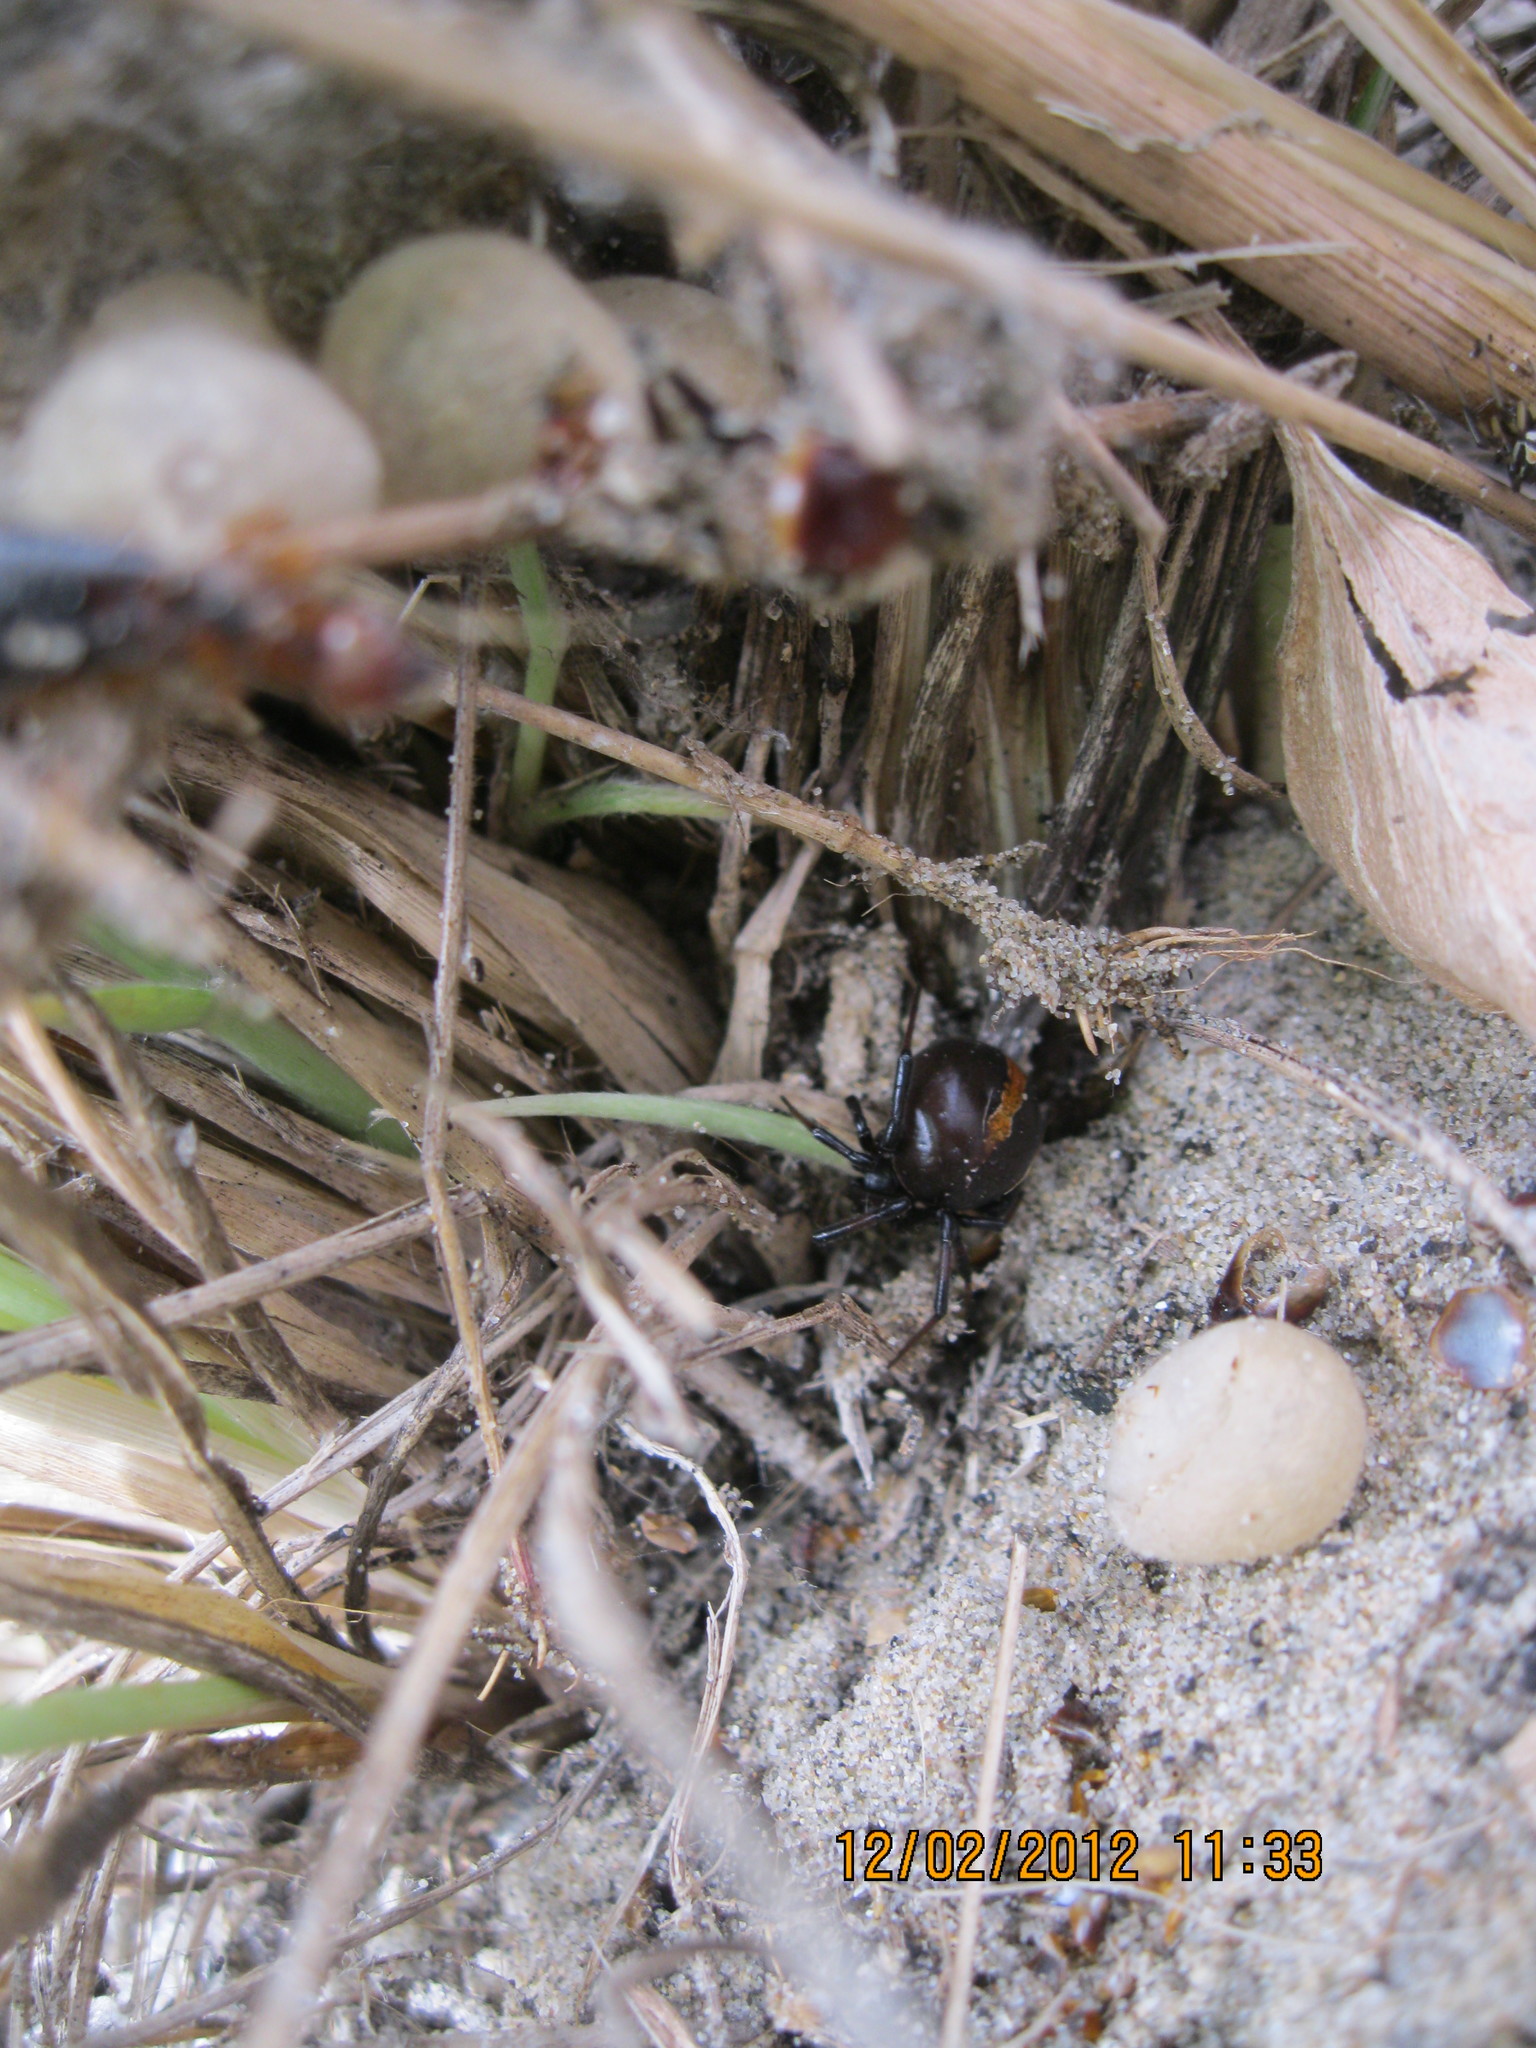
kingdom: Animalia
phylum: Arthropoda
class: Arachnida
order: Araneae
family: Theridiidae
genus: Latrodectus
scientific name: Latrodectus katipo
